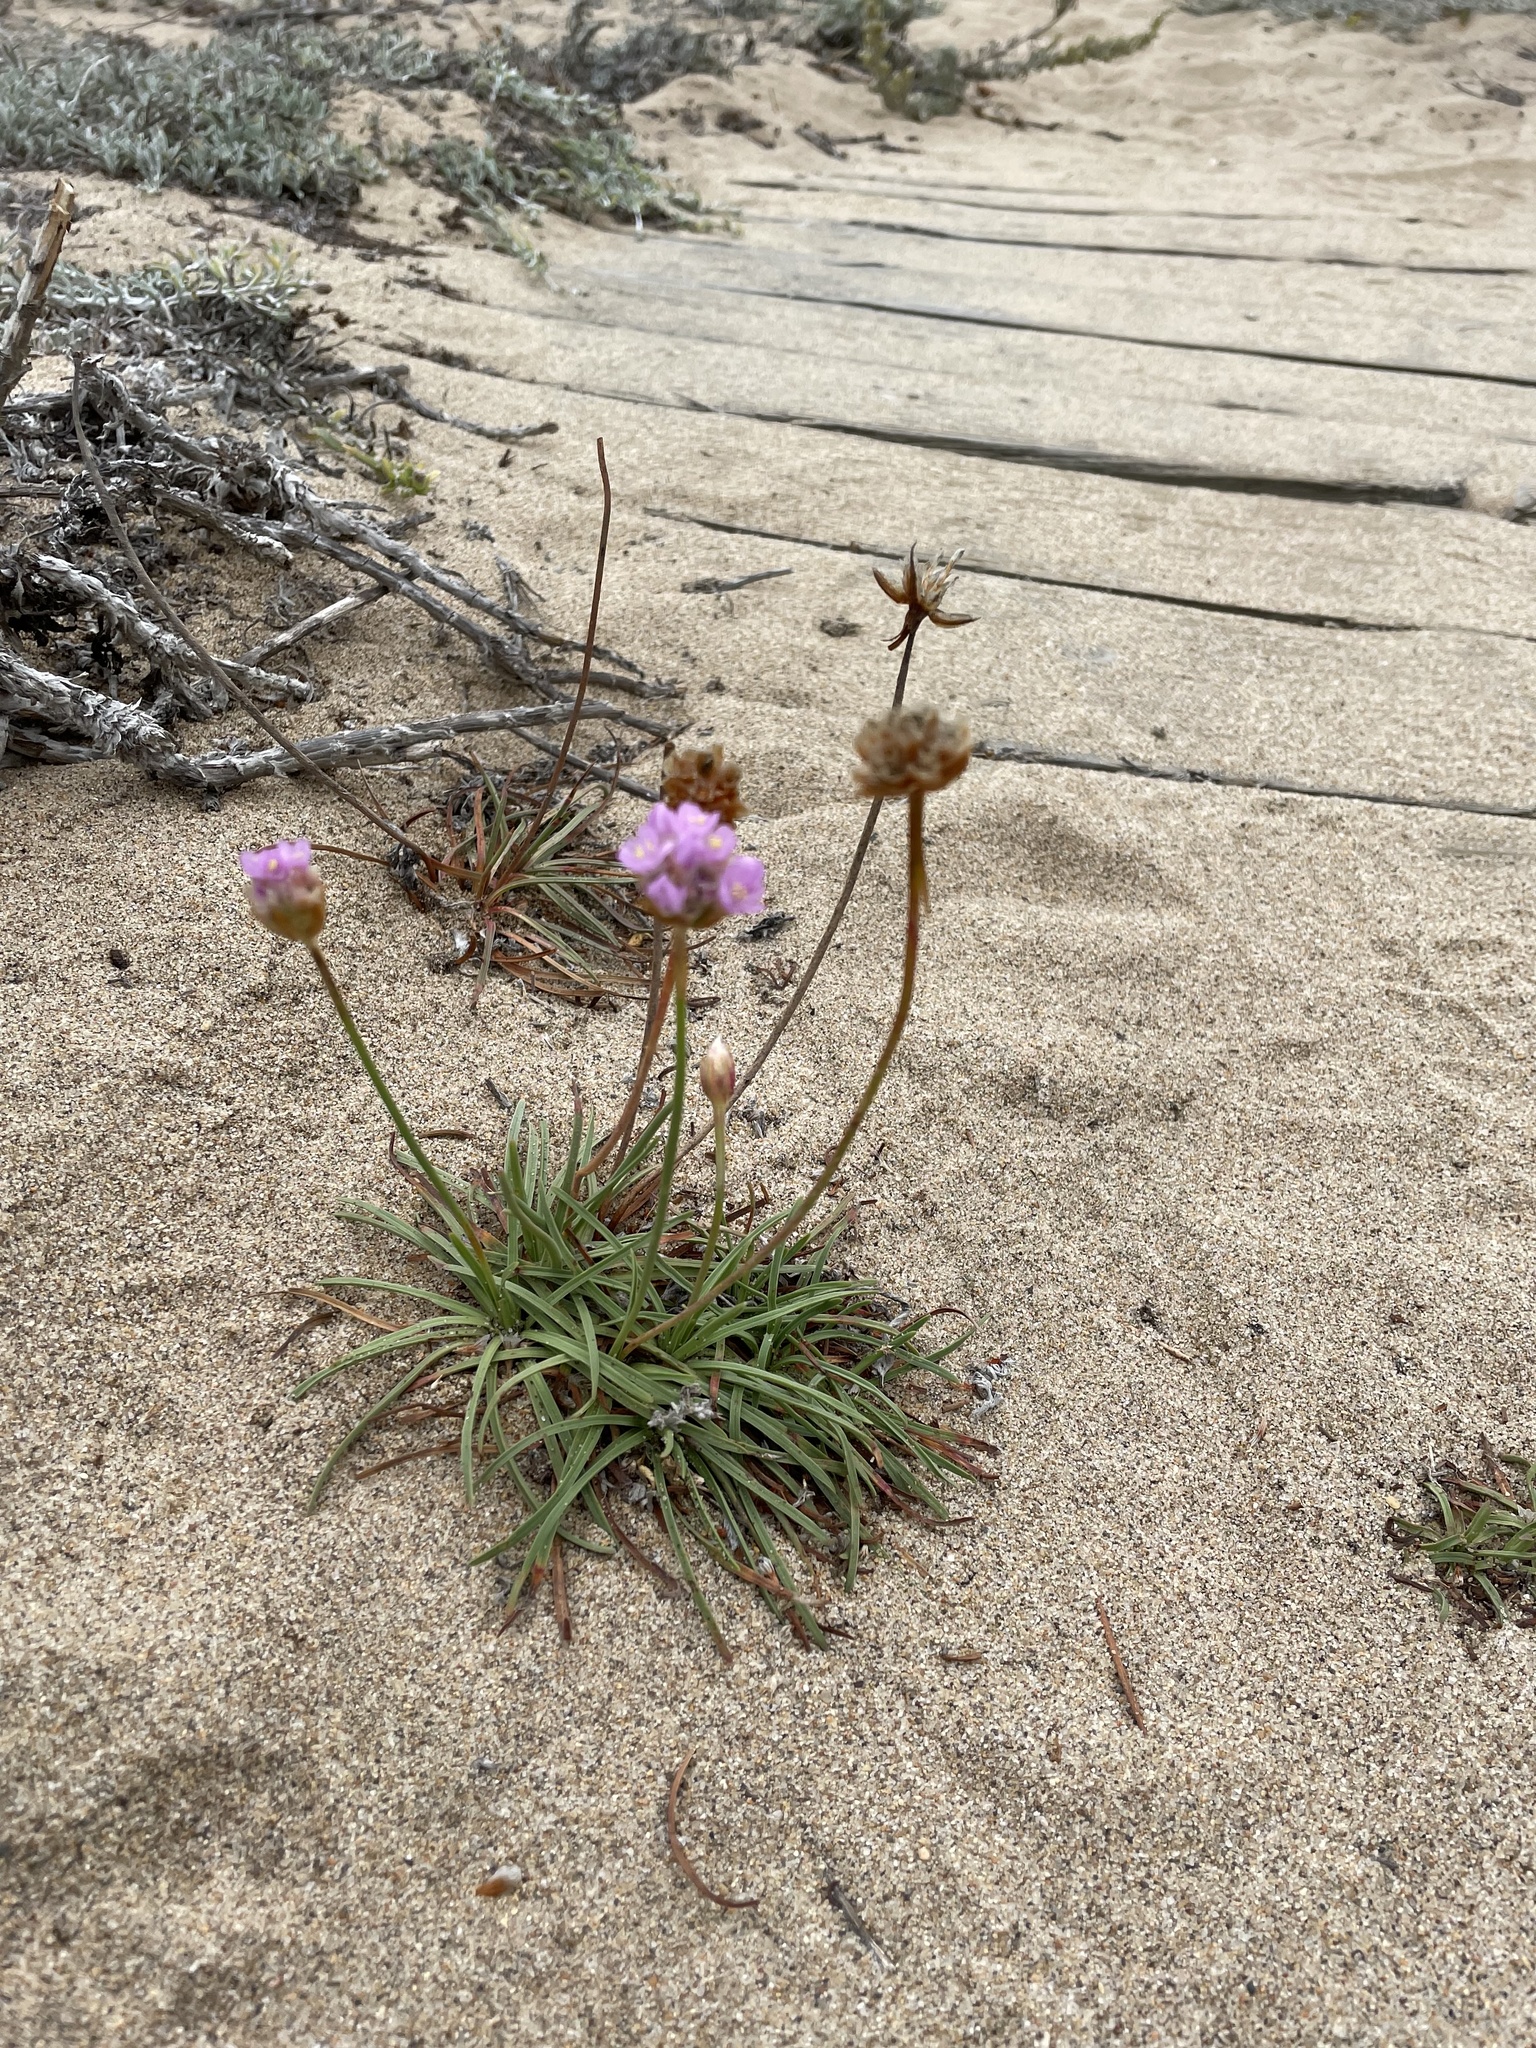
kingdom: Plantae
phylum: Tracheophyta
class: Magnoliopsida
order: Caryophyllales
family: Plumbaginaceae
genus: Armeria
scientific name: Armeria maritima
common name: Thrift
